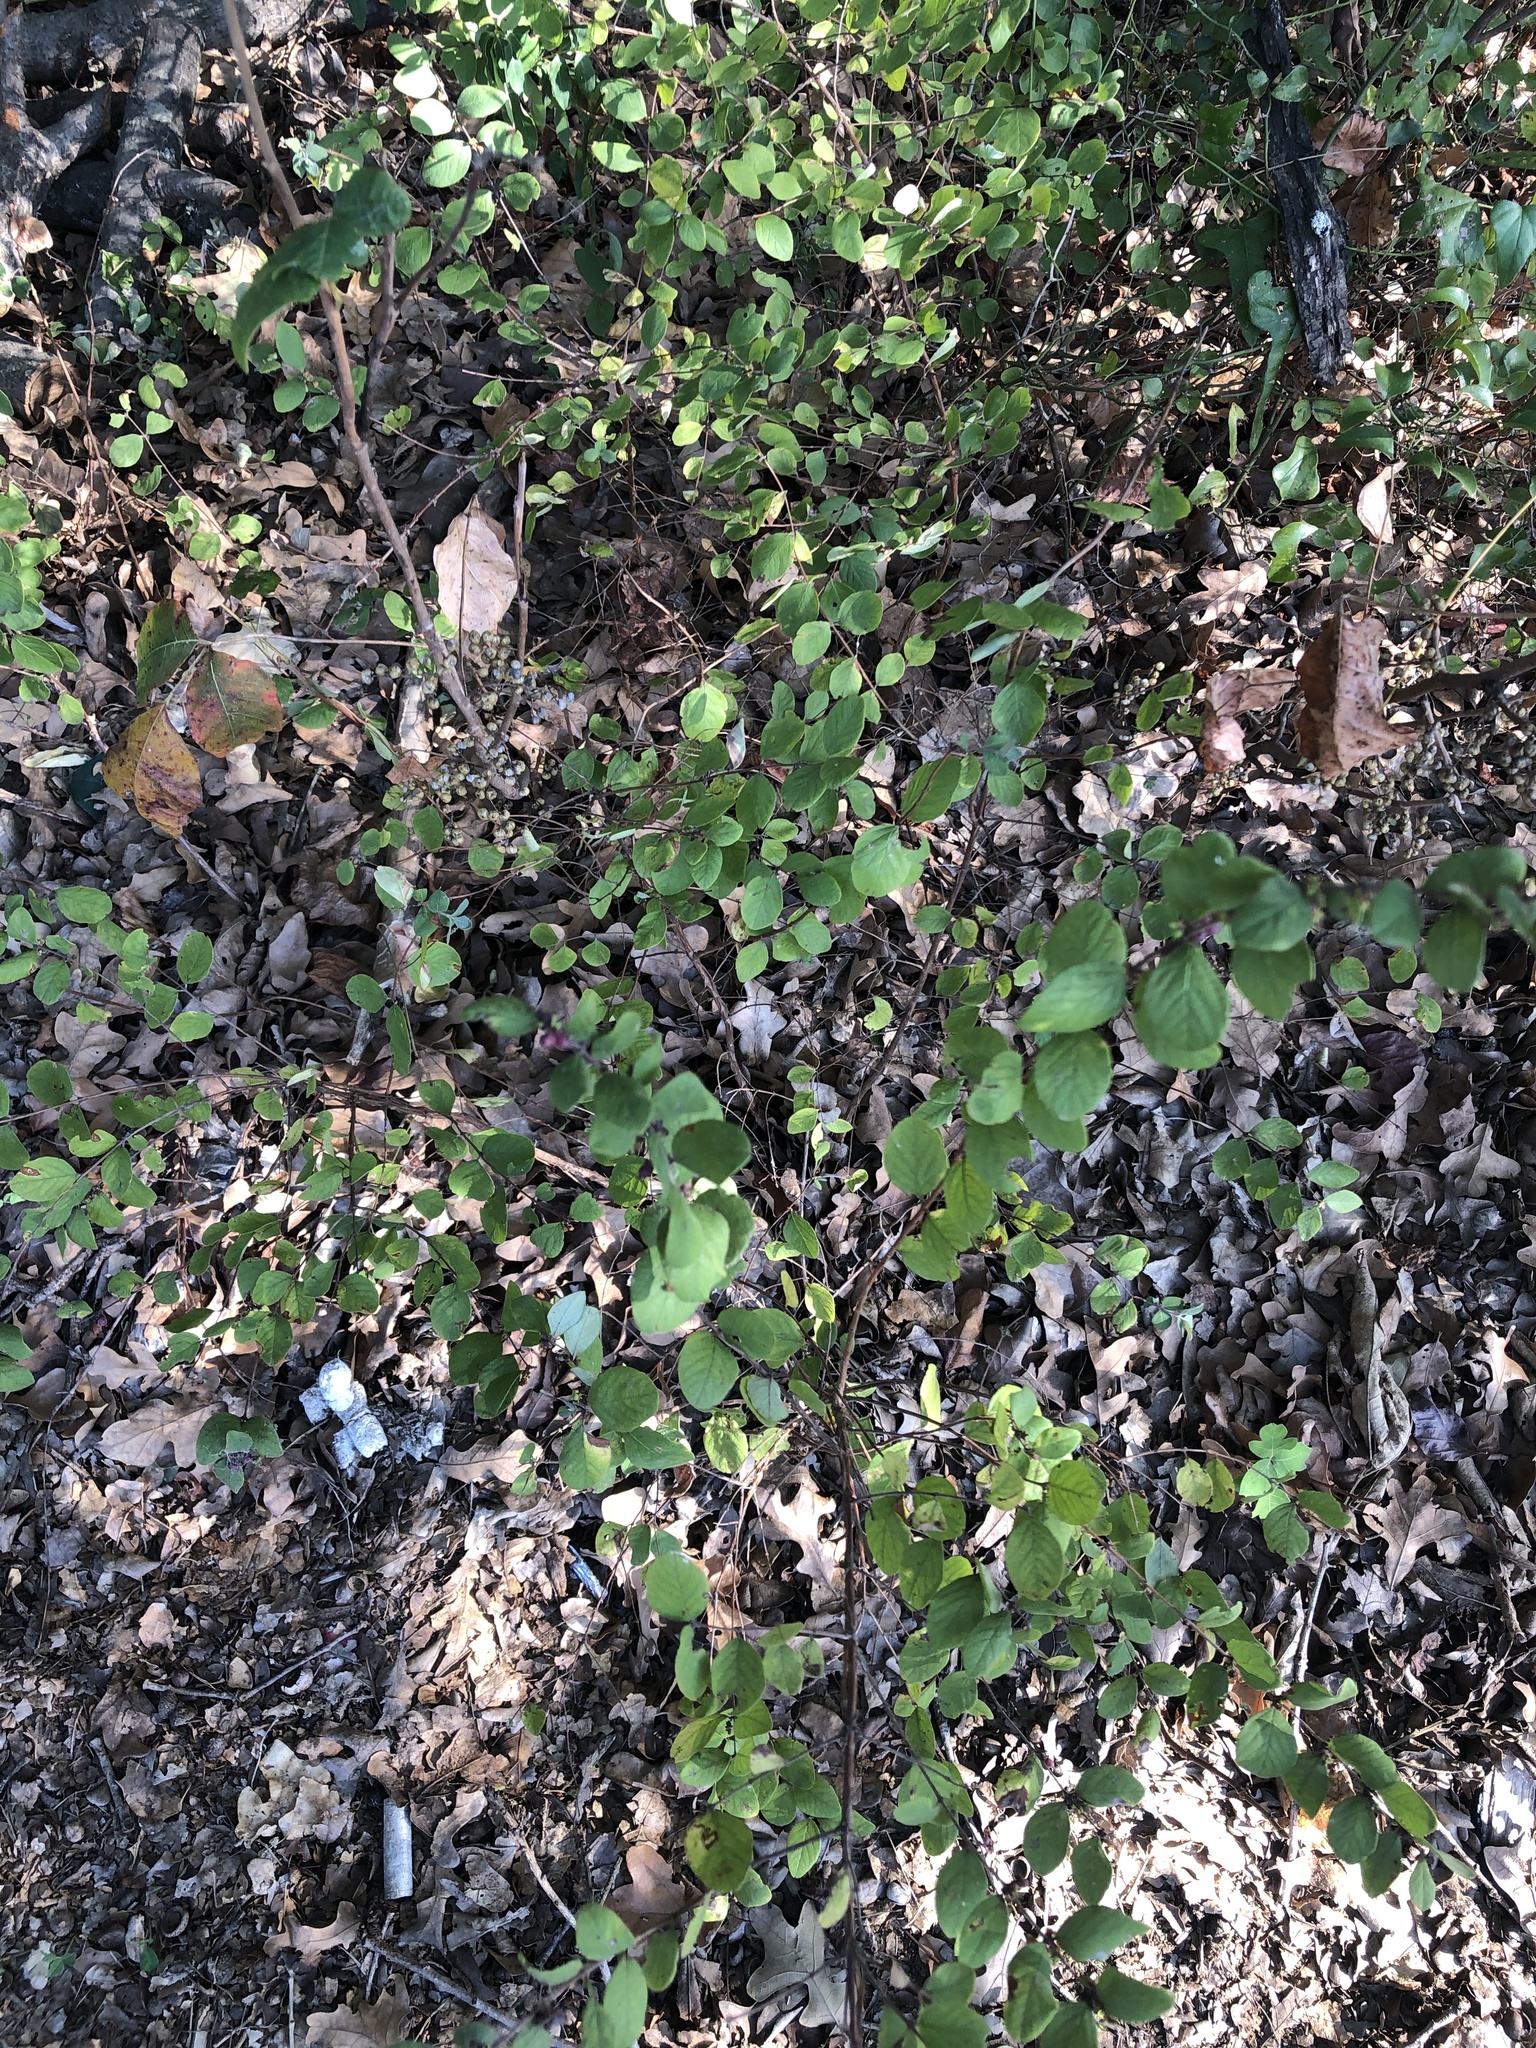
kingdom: Plantae
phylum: Tracheophyta
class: Magnoliopsida
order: Dipsacales
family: Caprifoliaceae
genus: Symphoricarpos
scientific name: Symphoricarpos orbiculatus
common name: Coralberry
